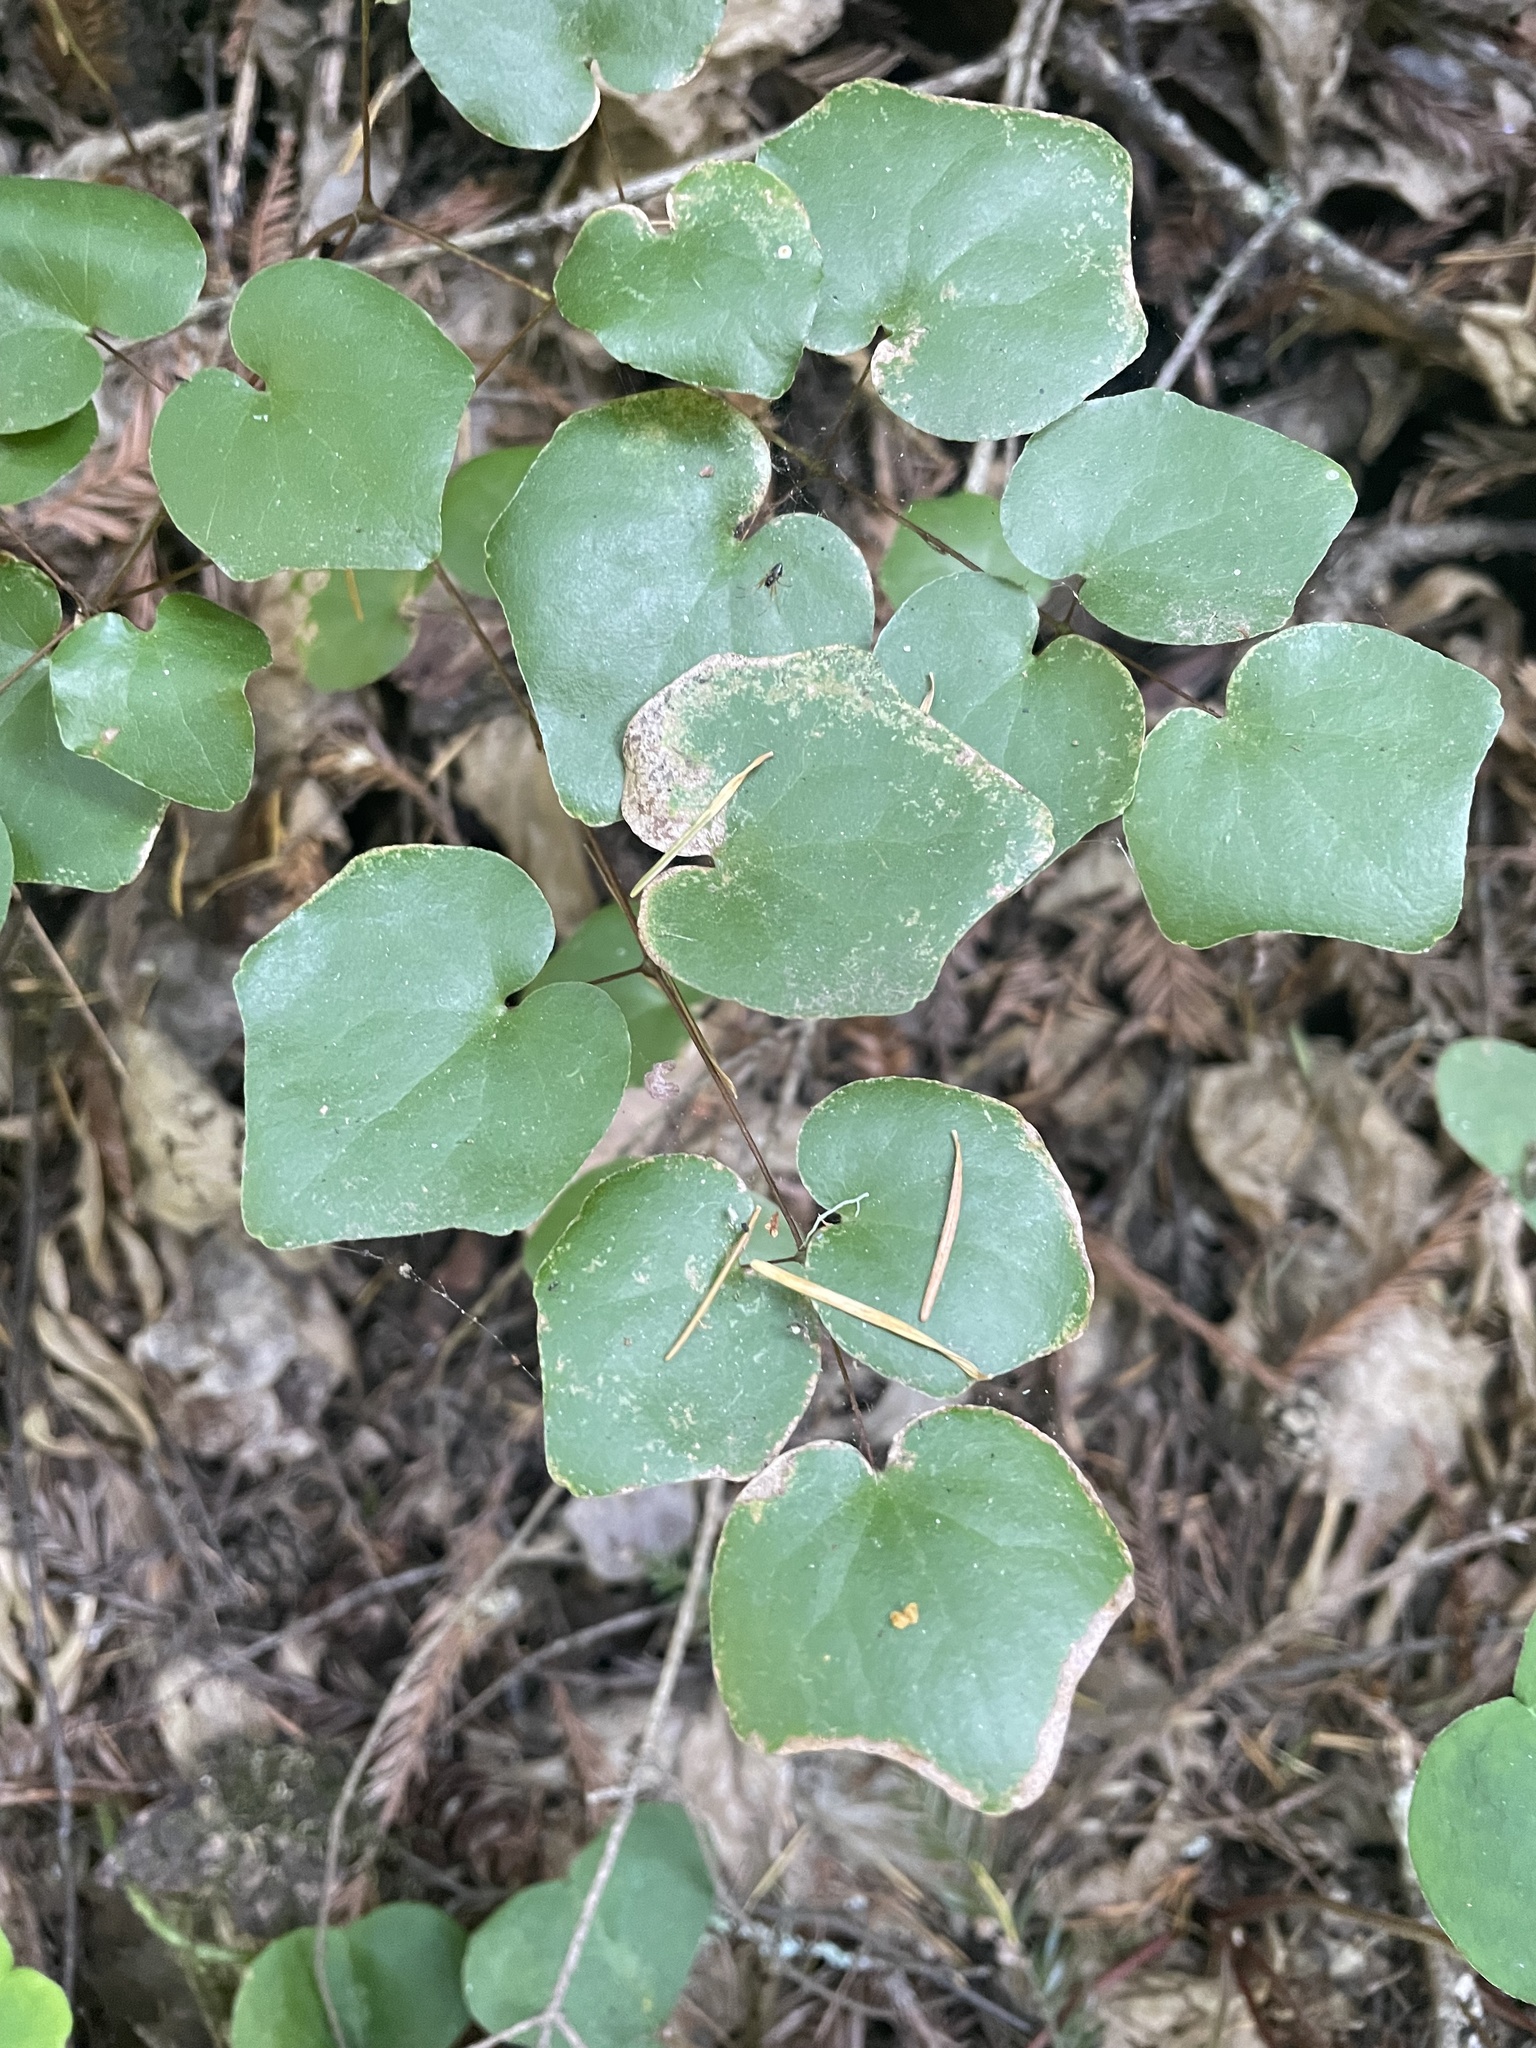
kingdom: Plantae
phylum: Tracheophyta
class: Magnoliopsida
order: Ranunculales
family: Berberidaceae
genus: Vancouveria
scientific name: Vancouveria planipetala
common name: Redwood-ivy
